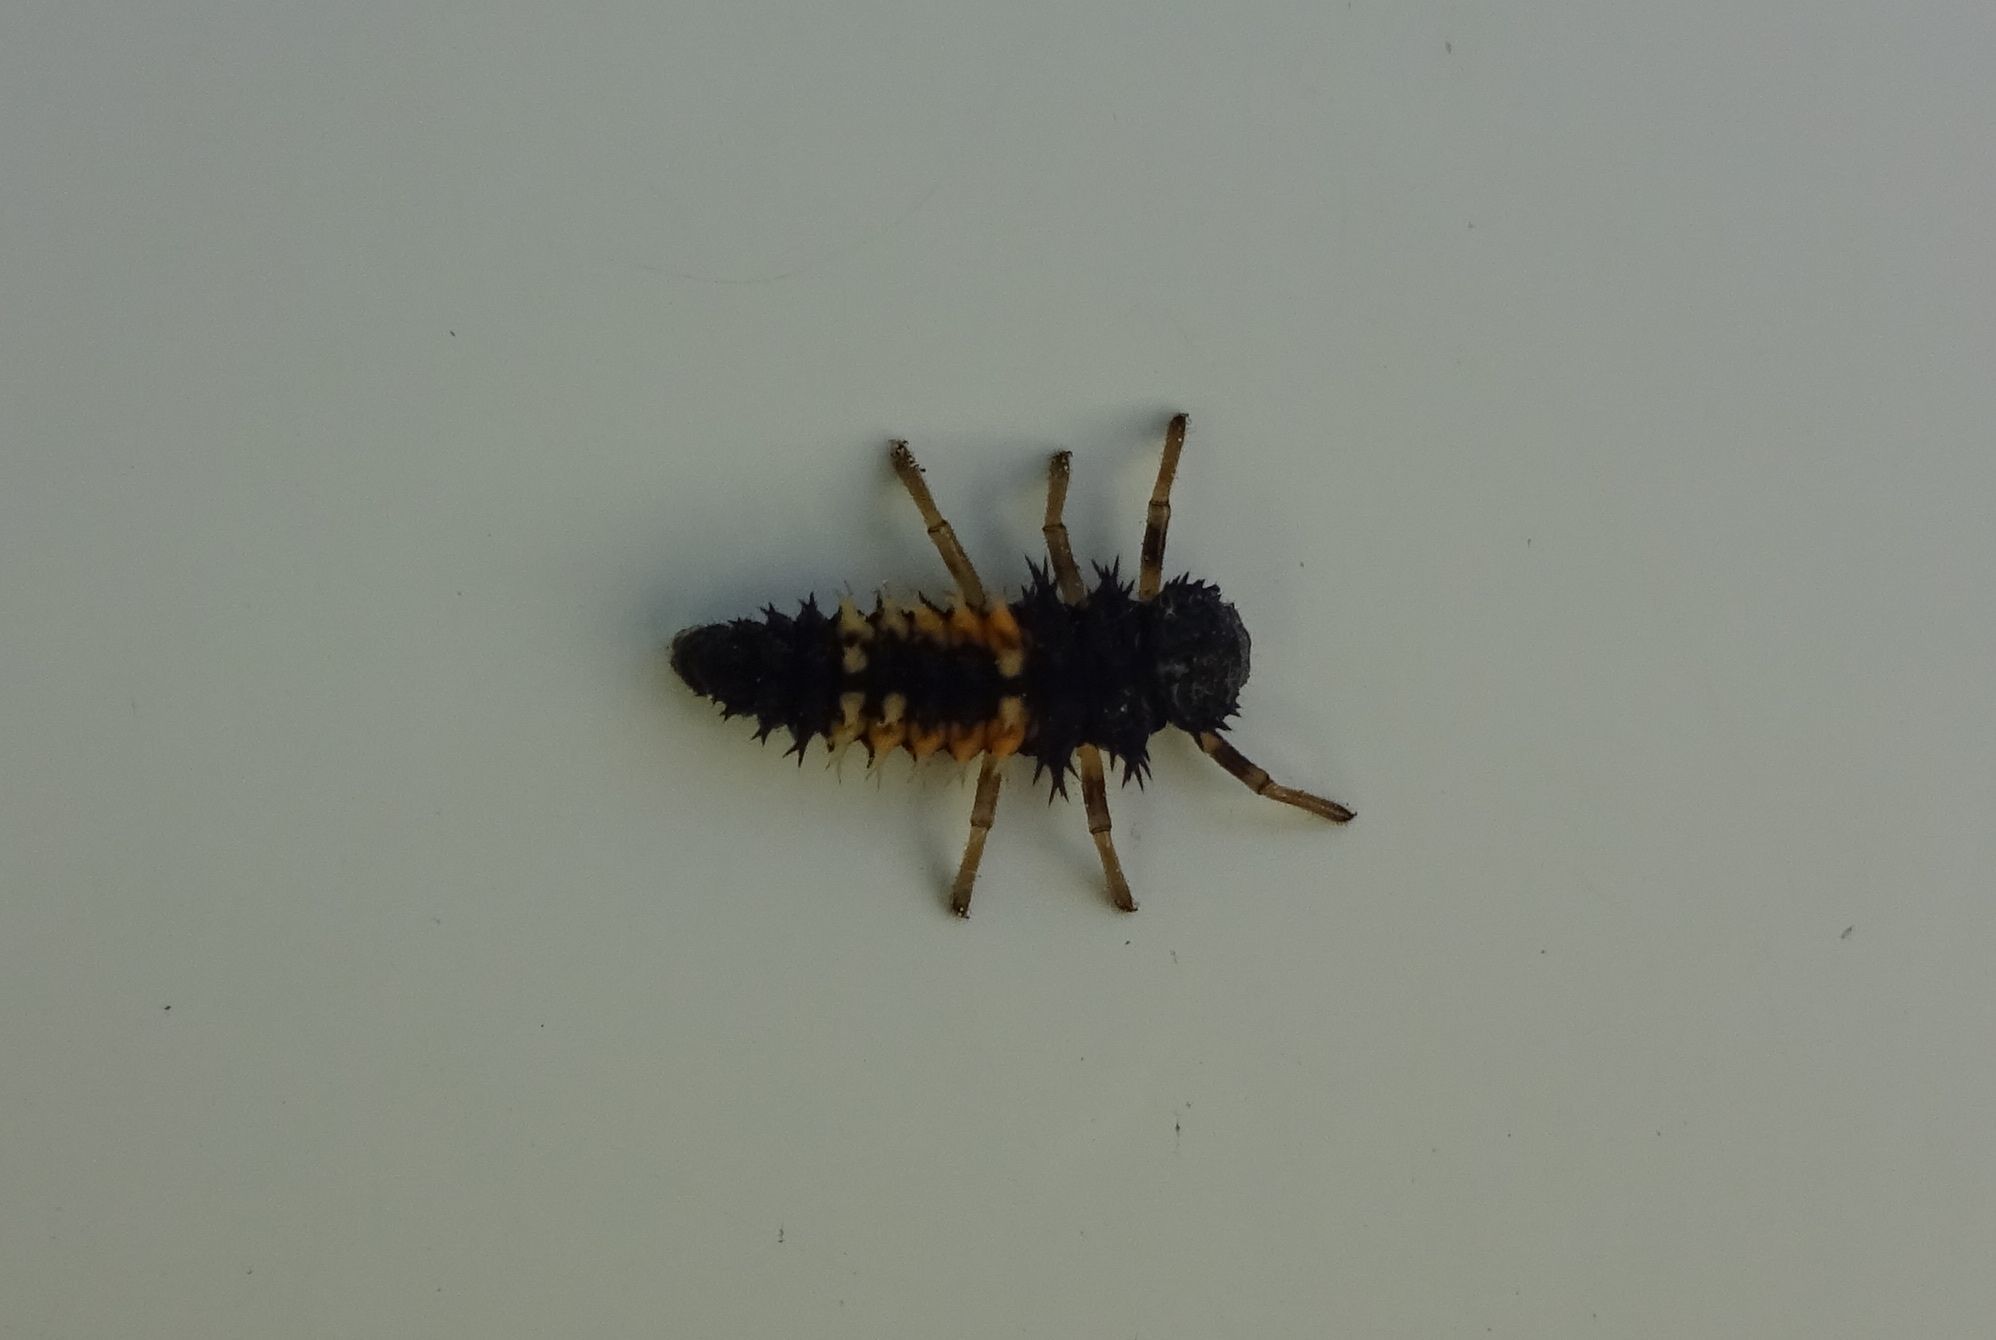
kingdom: Animalia
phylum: Arthropoda
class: Insecta
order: Coleoptera
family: Coccinellidae
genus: Harmonia
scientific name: Harmonia axyridis
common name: Harlequin ladybird
